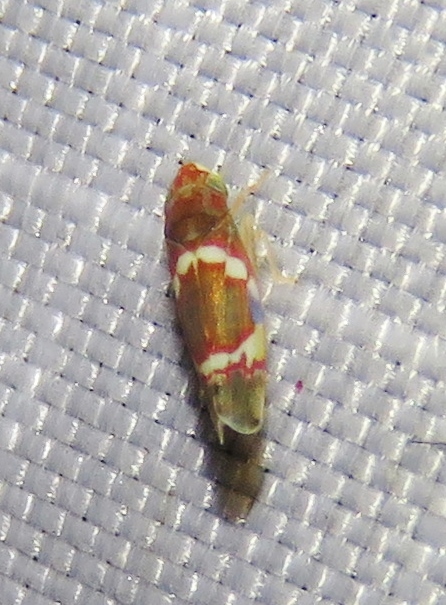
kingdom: Animalia
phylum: Arthropoda
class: Insecta
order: Hemiptera
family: Cicadellidae
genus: Erythroneura
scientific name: Erythroneura vitis
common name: Grapevine leafhopper
